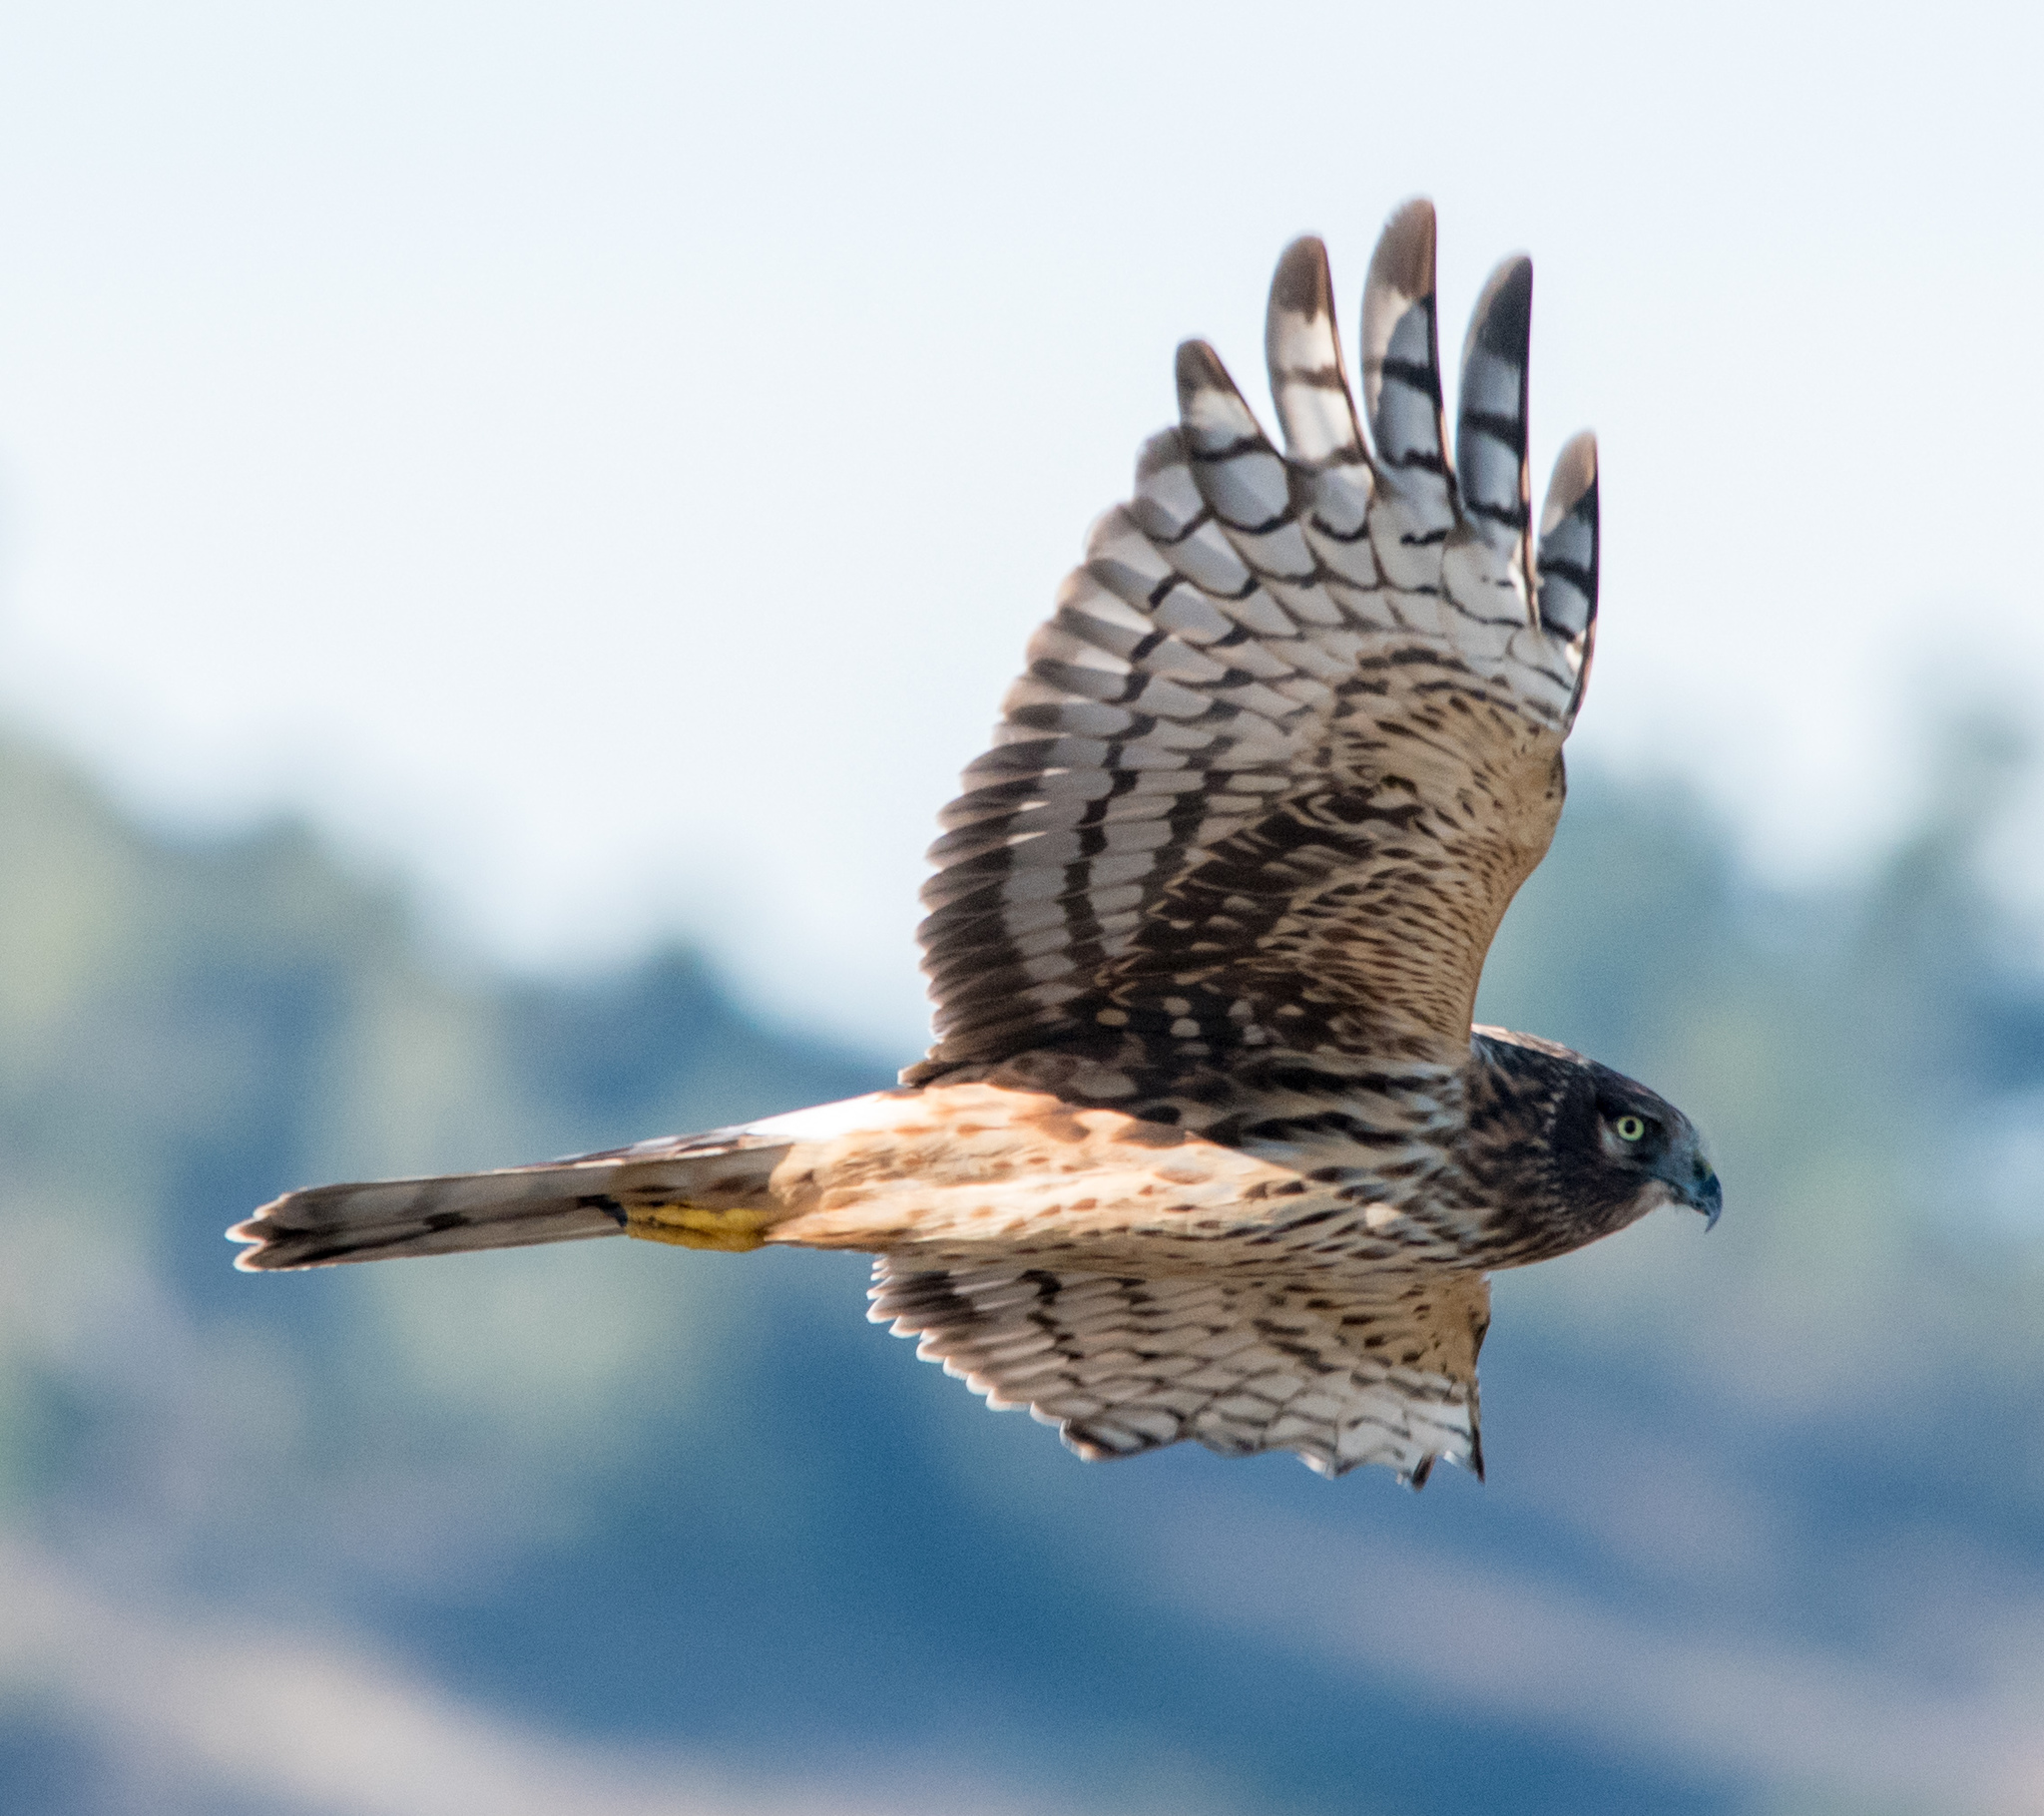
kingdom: Animalia
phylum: Chordata
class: Aves
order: Accipitriformes
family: Accipitridae
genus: Circus
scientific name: Circus cyaneus
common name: Hen harrier
